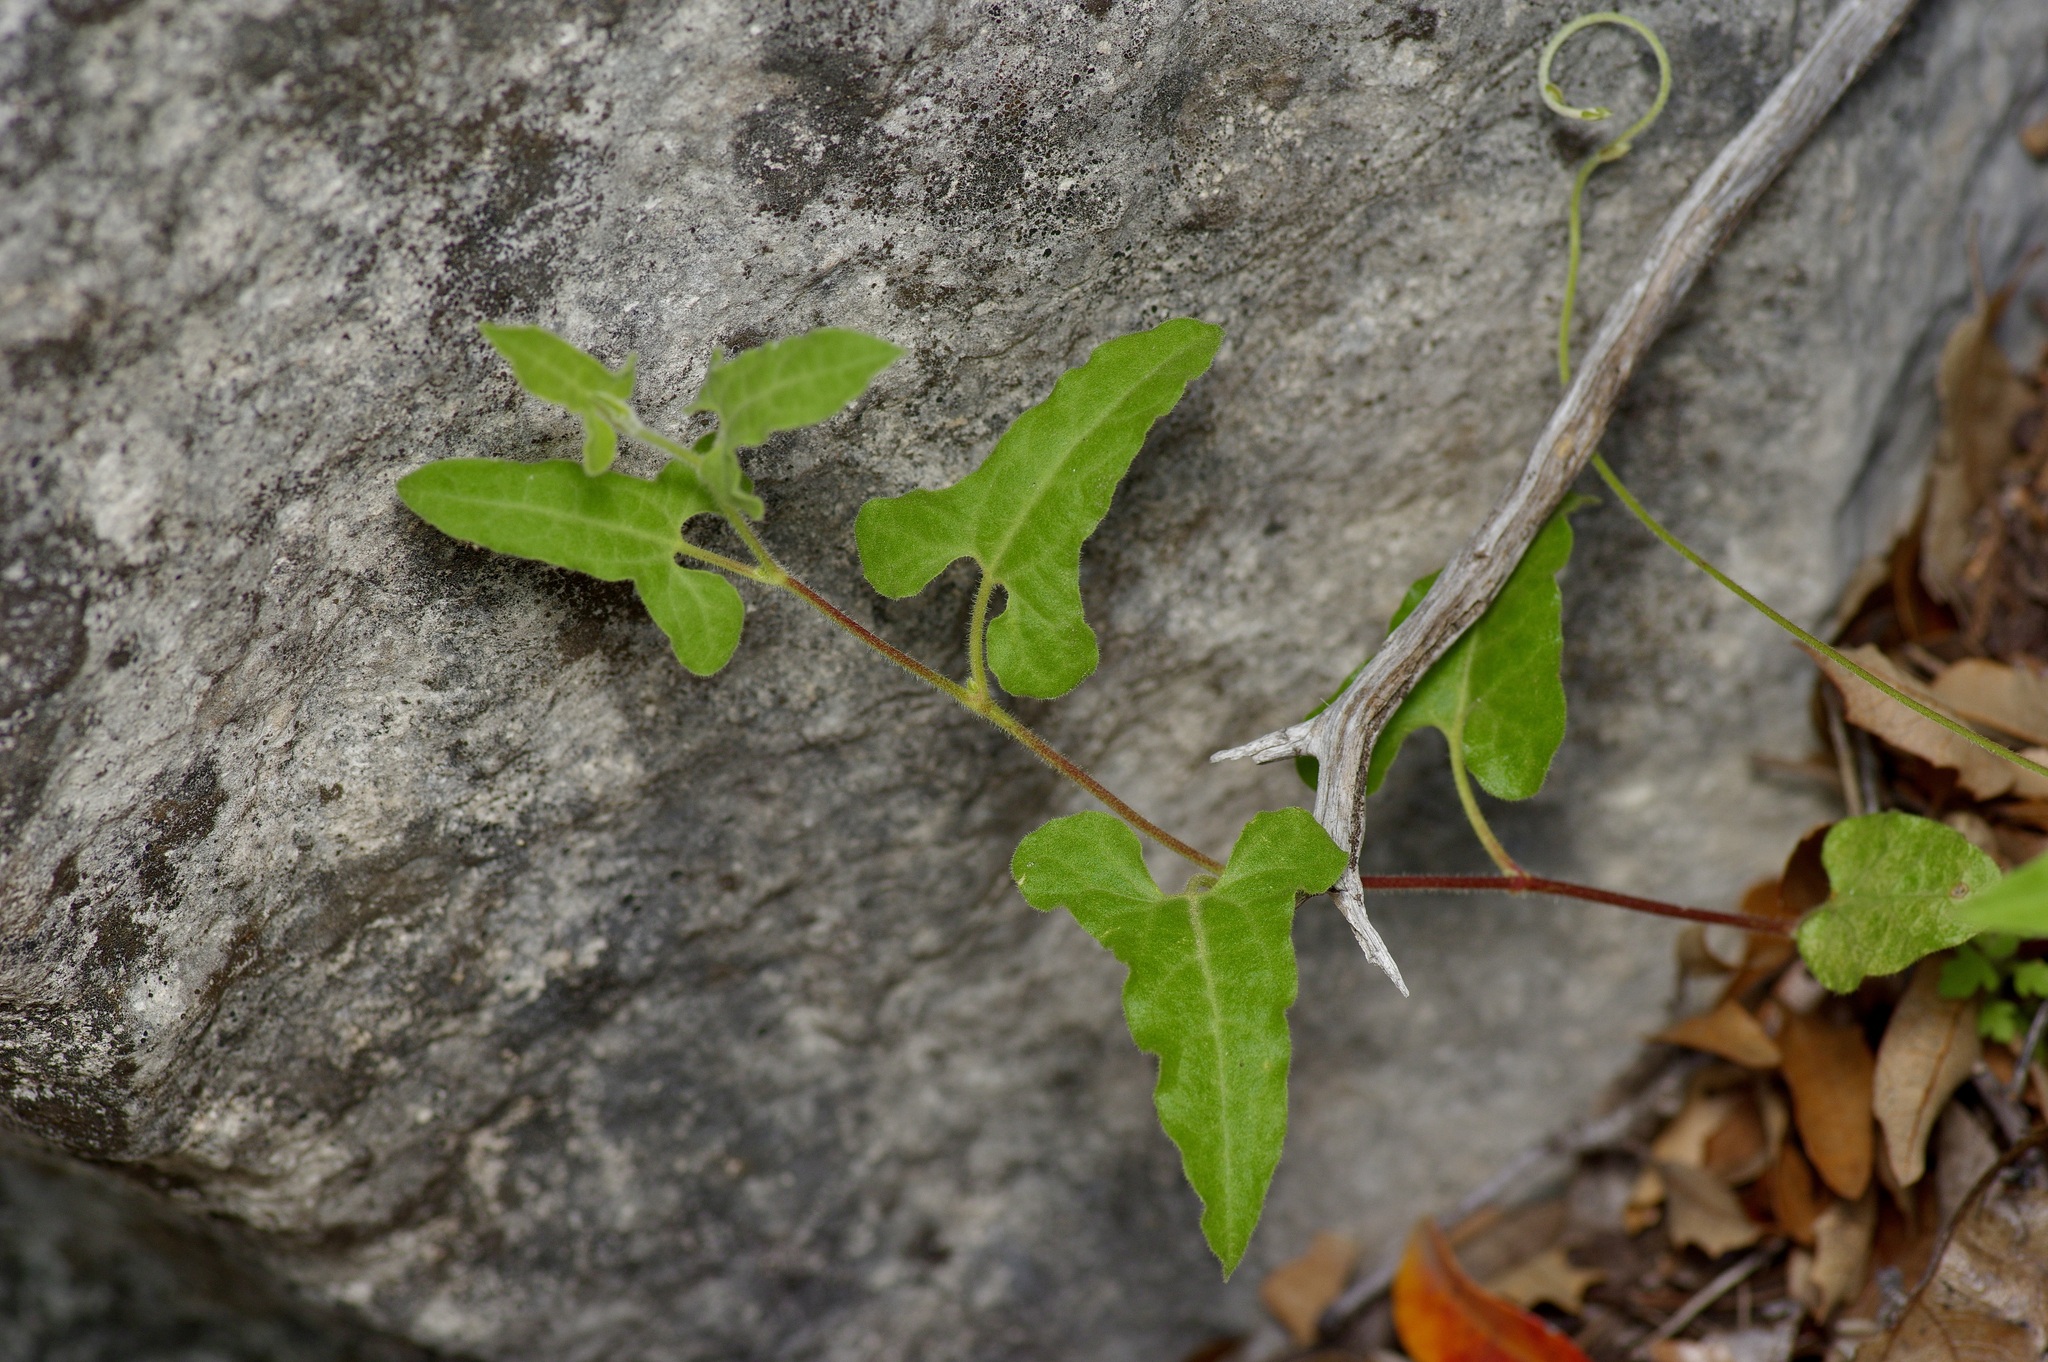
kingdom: Plantae
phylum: Tracheophyta
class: Magnoliopsida
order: Piperales
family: Aristolochiaceae
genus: Aristolochia
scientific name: Aristolochia coryi
